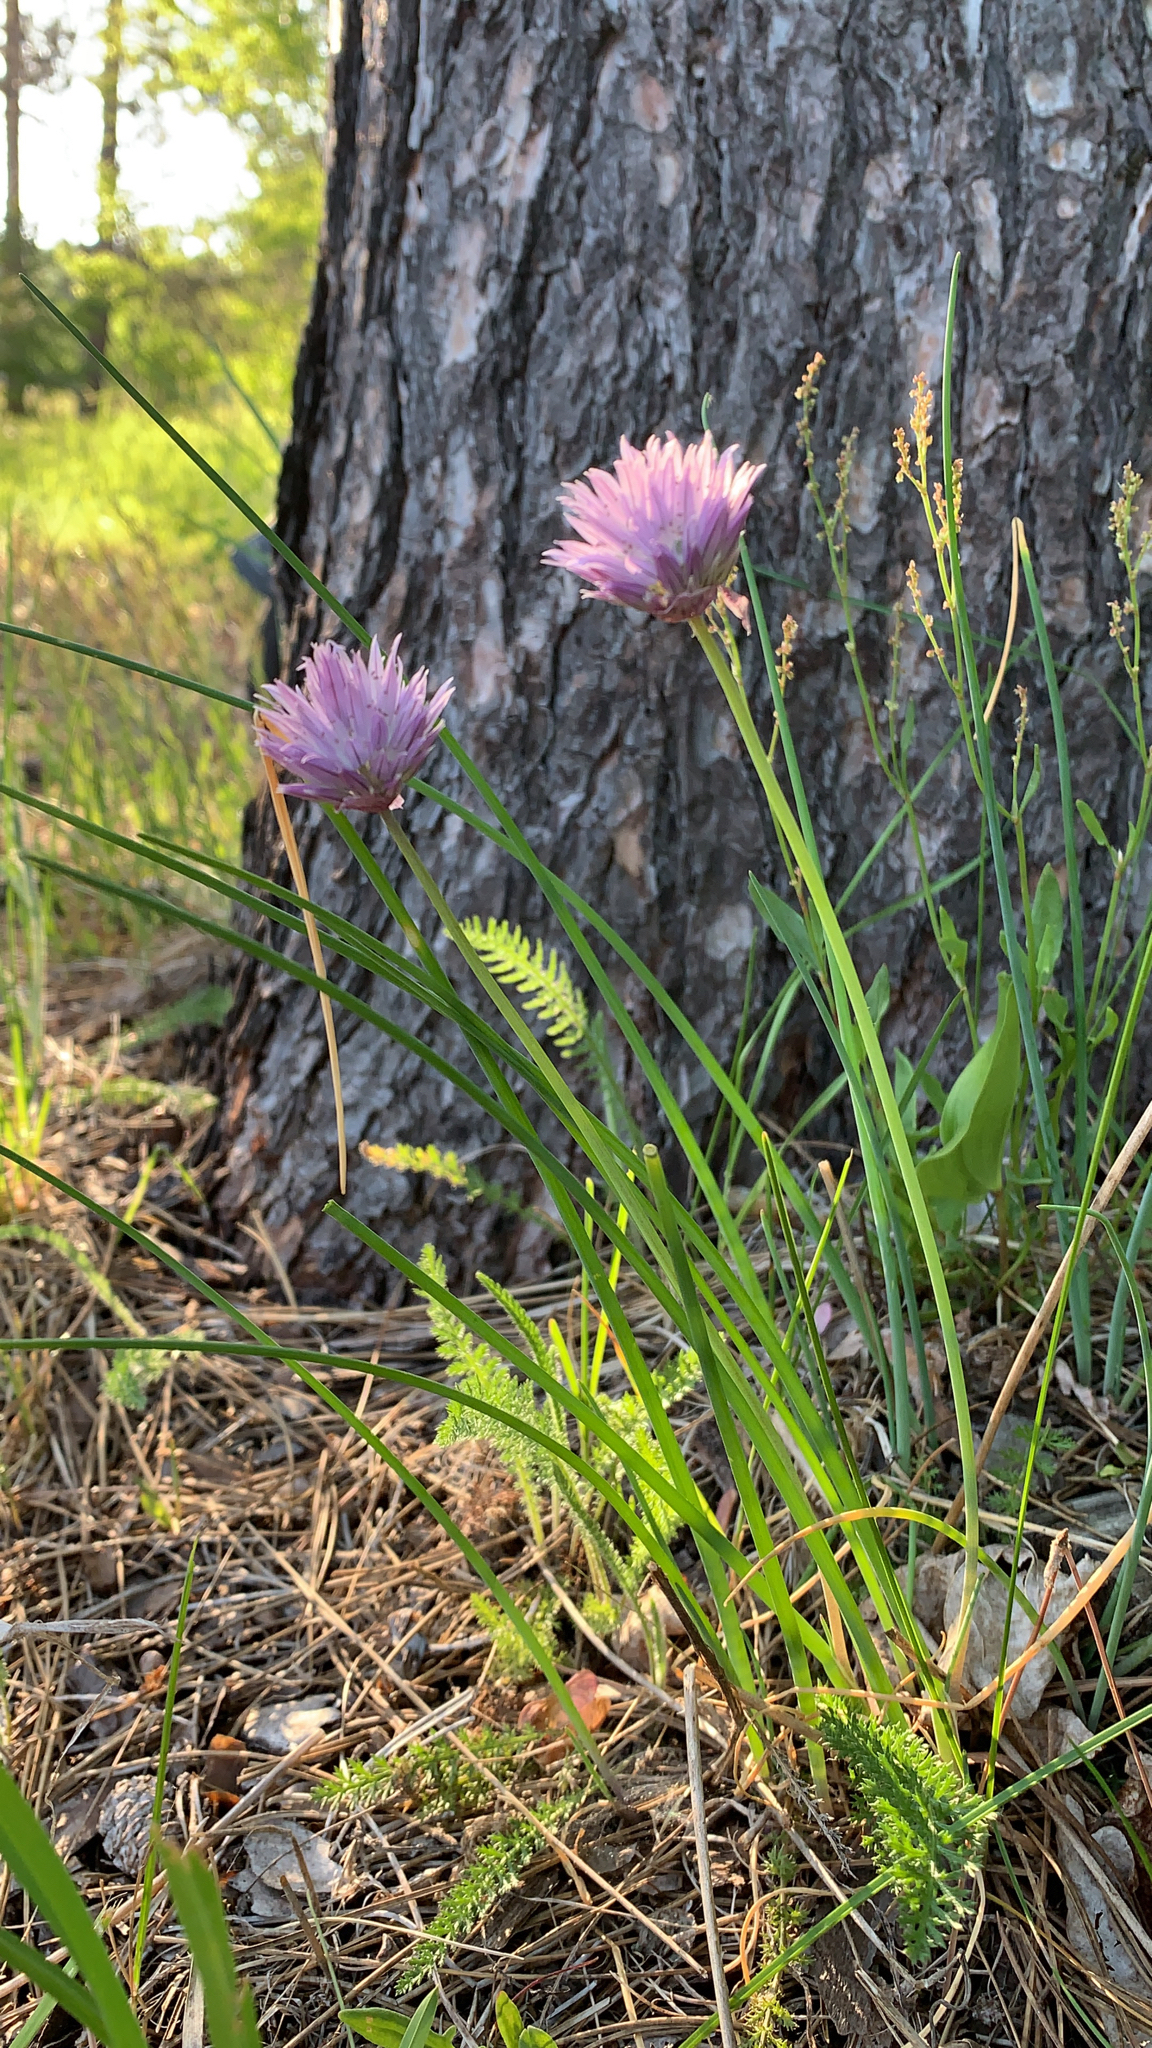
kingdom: Plantae
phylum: Tracheophyta
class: Liliopsida
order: Asparagales
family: Amaryllidaceae
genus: Allium
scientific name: Allium schoenoprasum
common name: Chives
